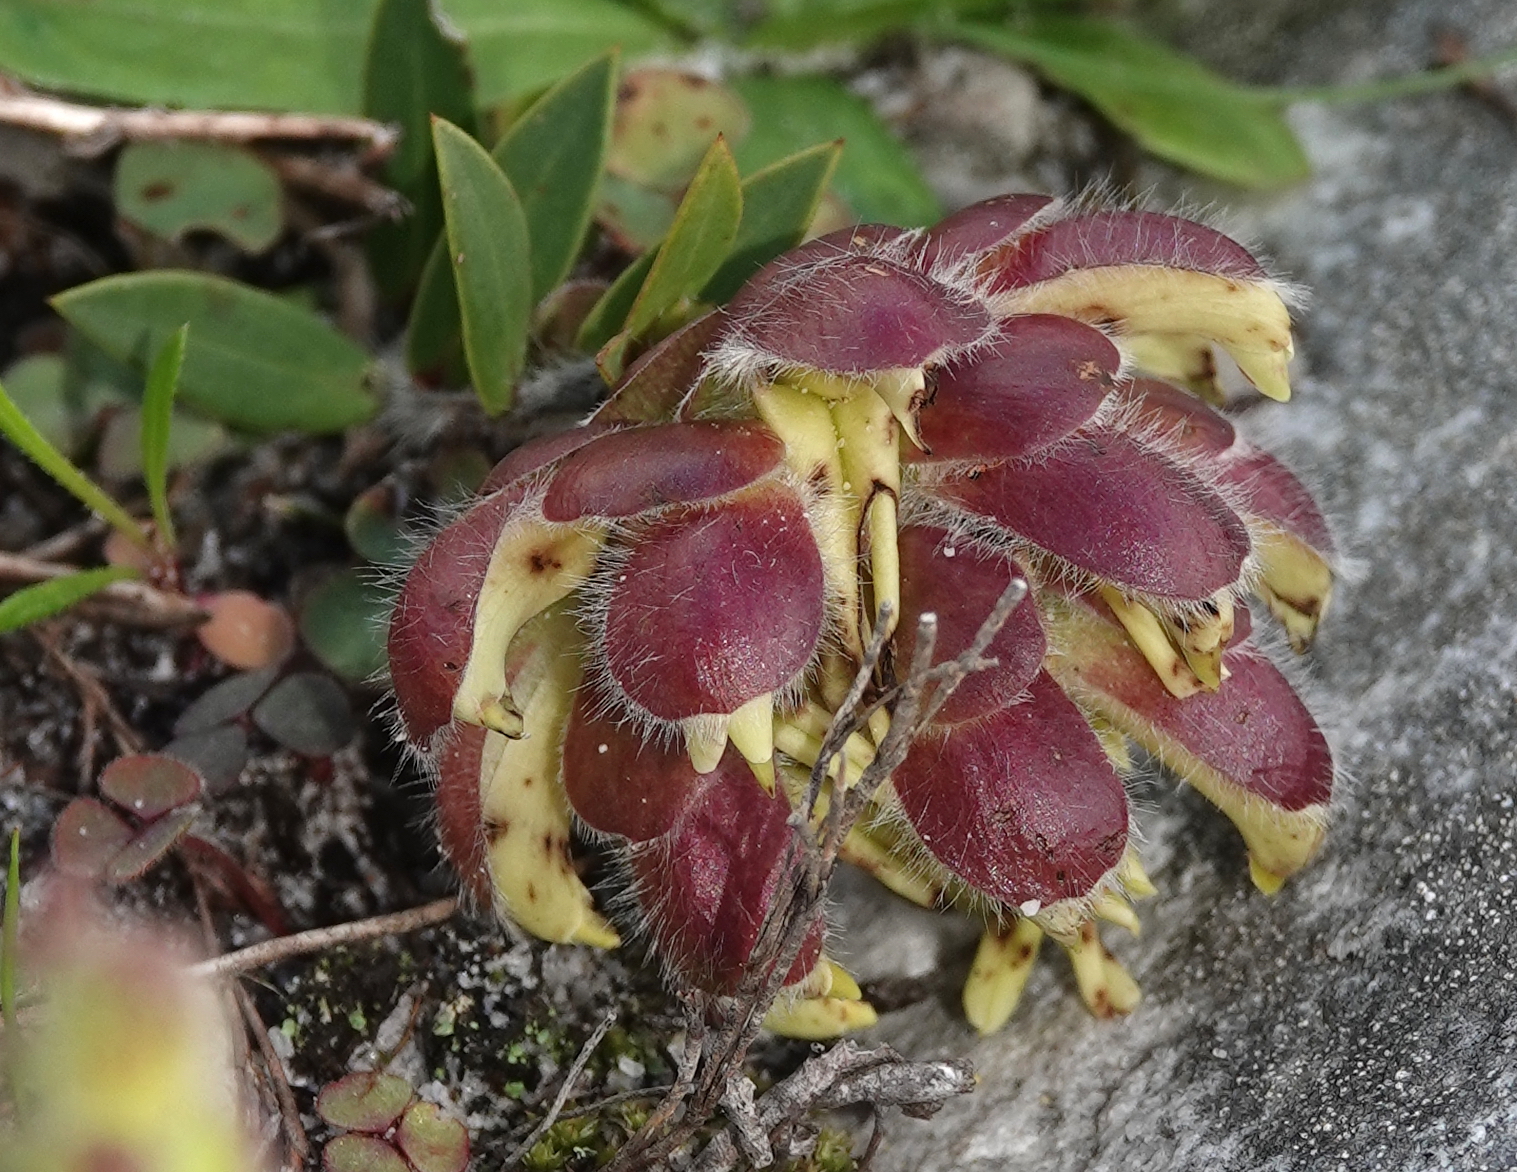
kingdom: Plantae
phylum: Tracheophyta
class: Magnoliopsida
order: Fabales
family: Fabaceae
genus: Liparia
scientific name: Liparia parva
